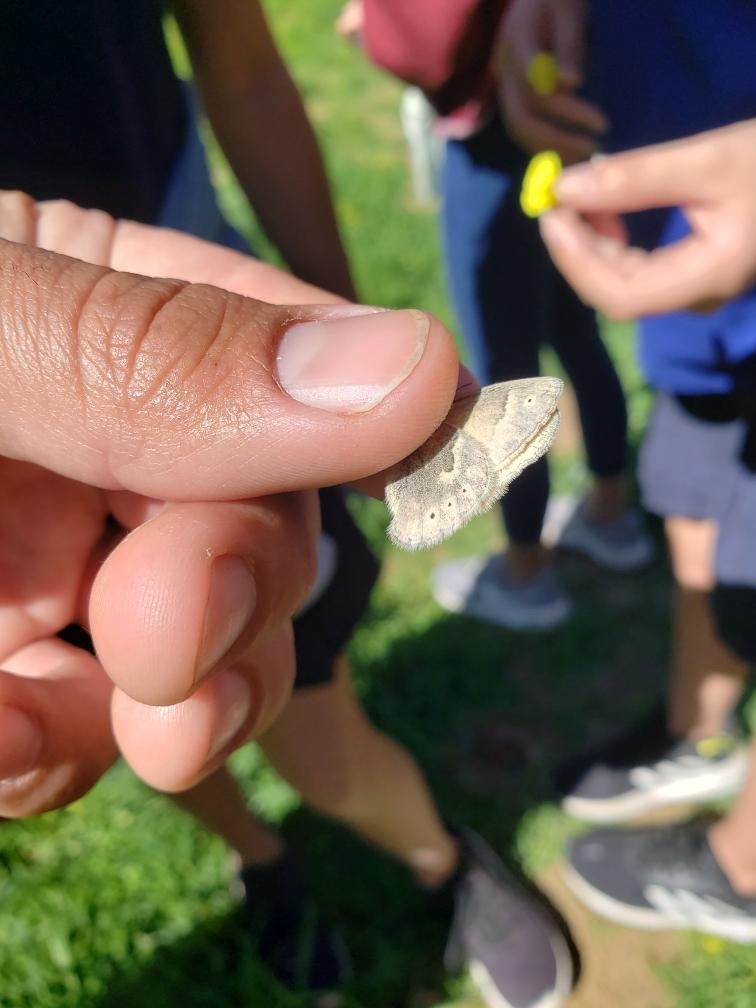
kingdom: Animalia
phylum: Arthropoda
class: Insecta
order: Lepidoptera
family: Nymphalidae
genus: Coenonympha
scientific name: Coenonympha california
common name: Common ringlet
